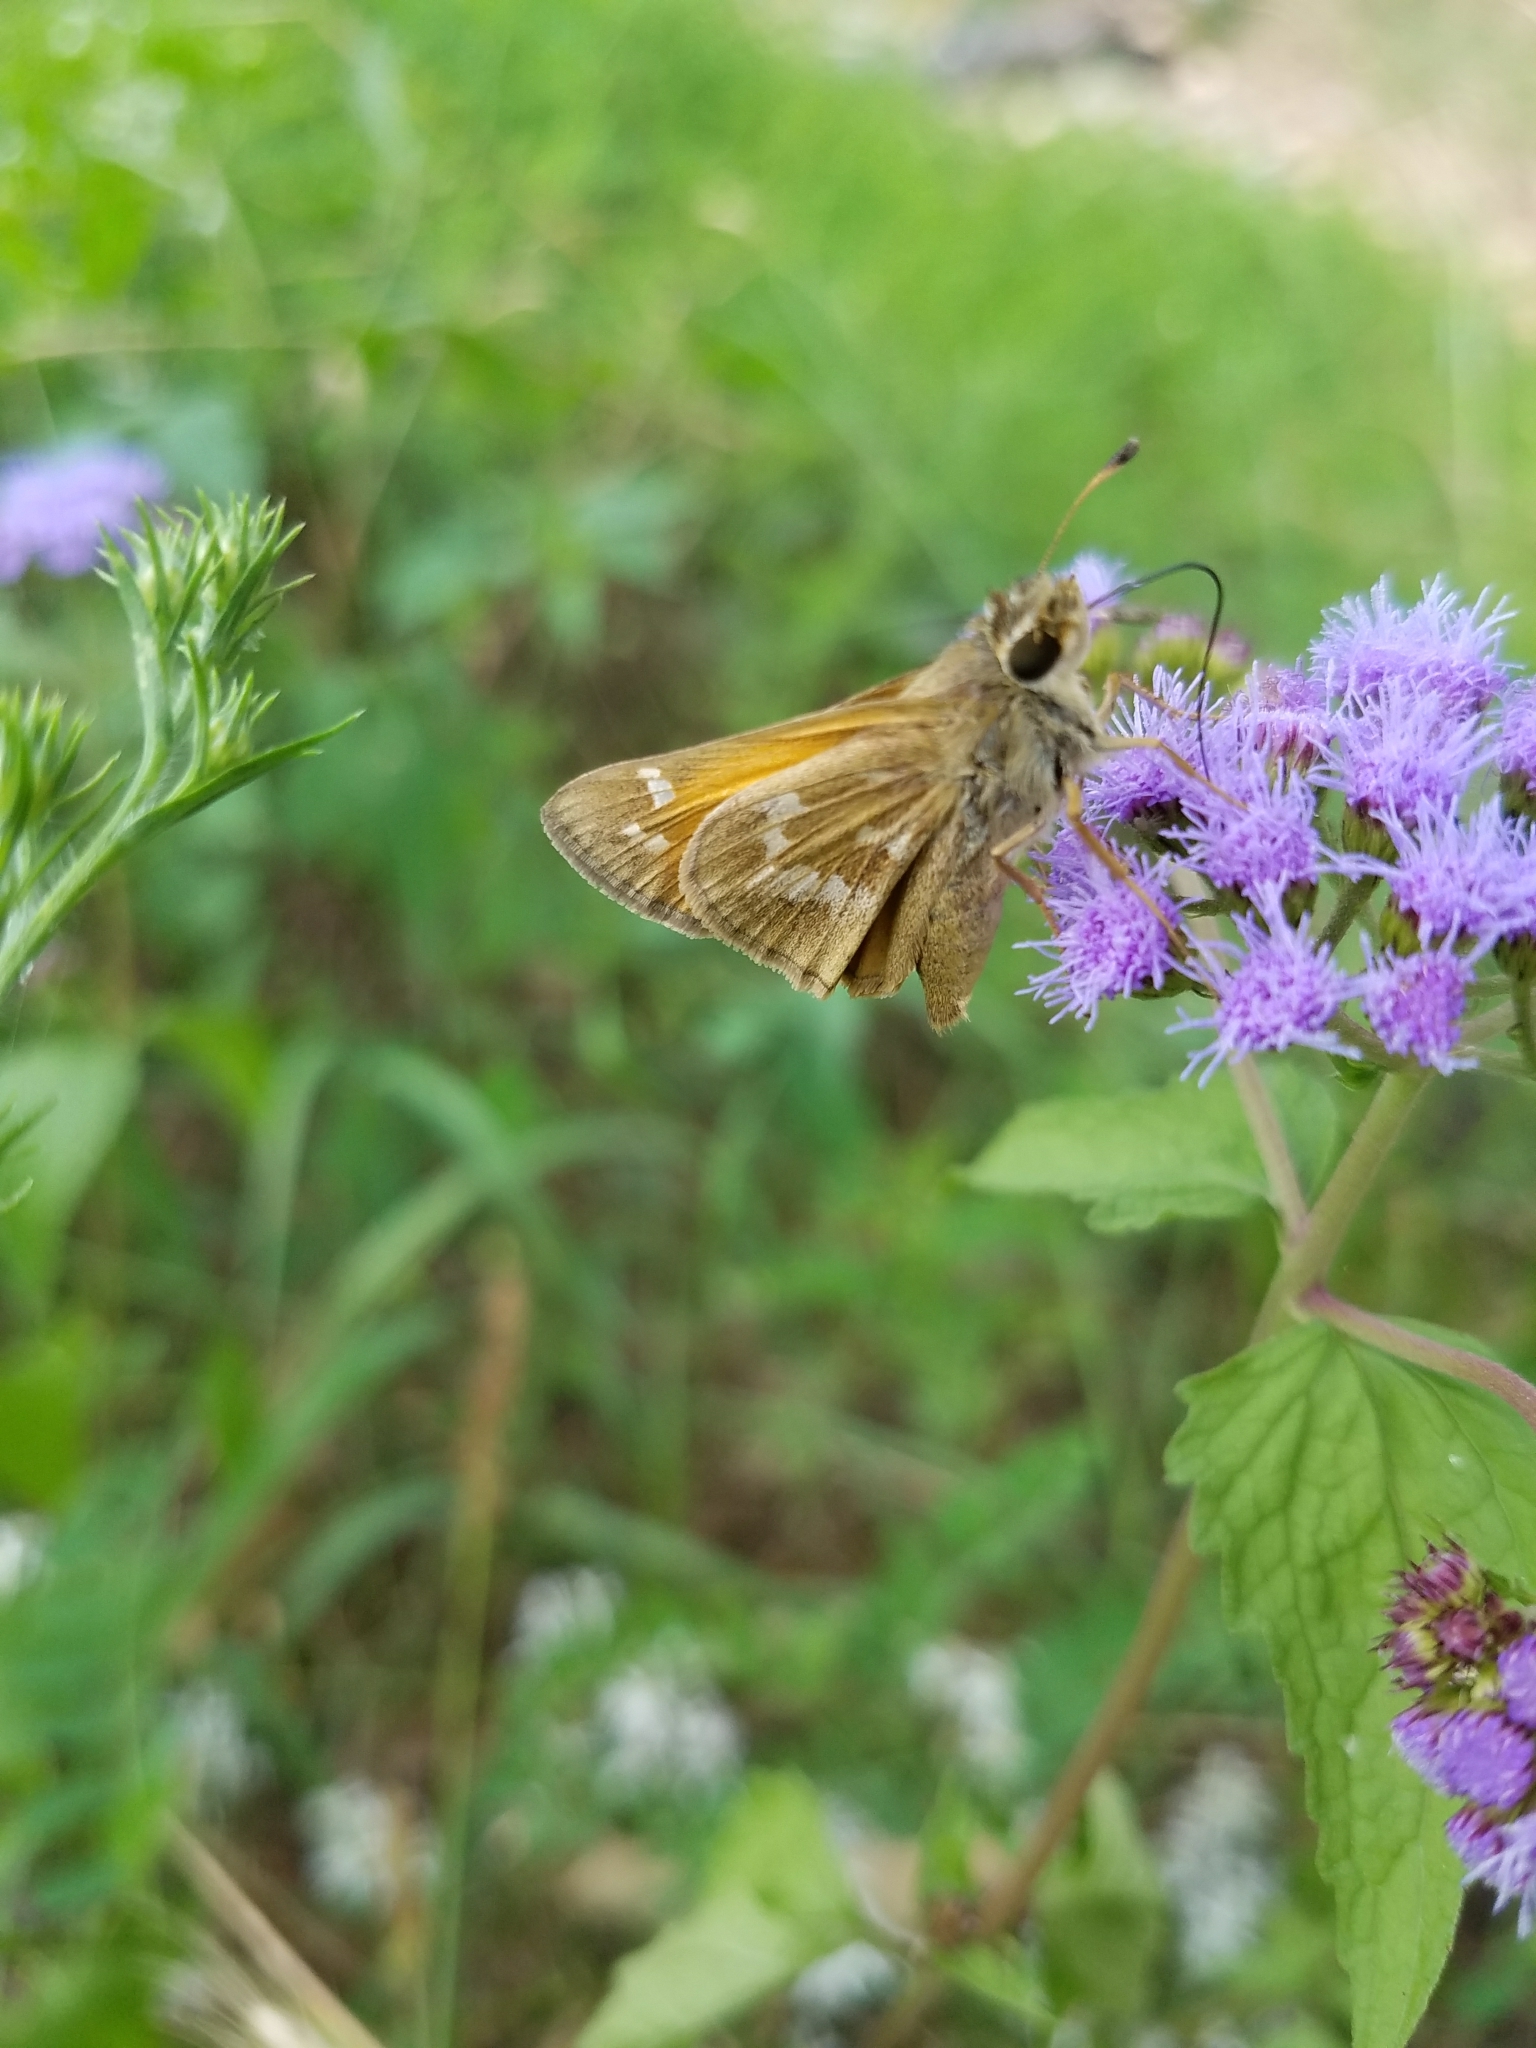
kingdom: Animalia
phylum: Arthropoda
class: Insecta
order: Lepidoptera
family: Hesperiidae
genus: Atalopedes
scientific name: Atalopedes
